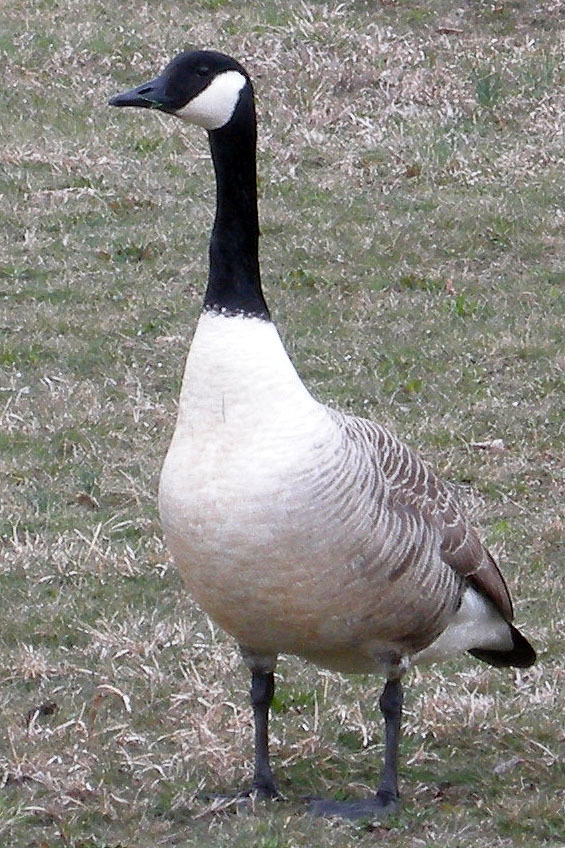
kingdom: Animalia
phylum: Chordata
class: Aves
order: Anseriformes
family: Anatidae
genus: Branta
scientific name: Branta canadensis
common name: Canada goose
